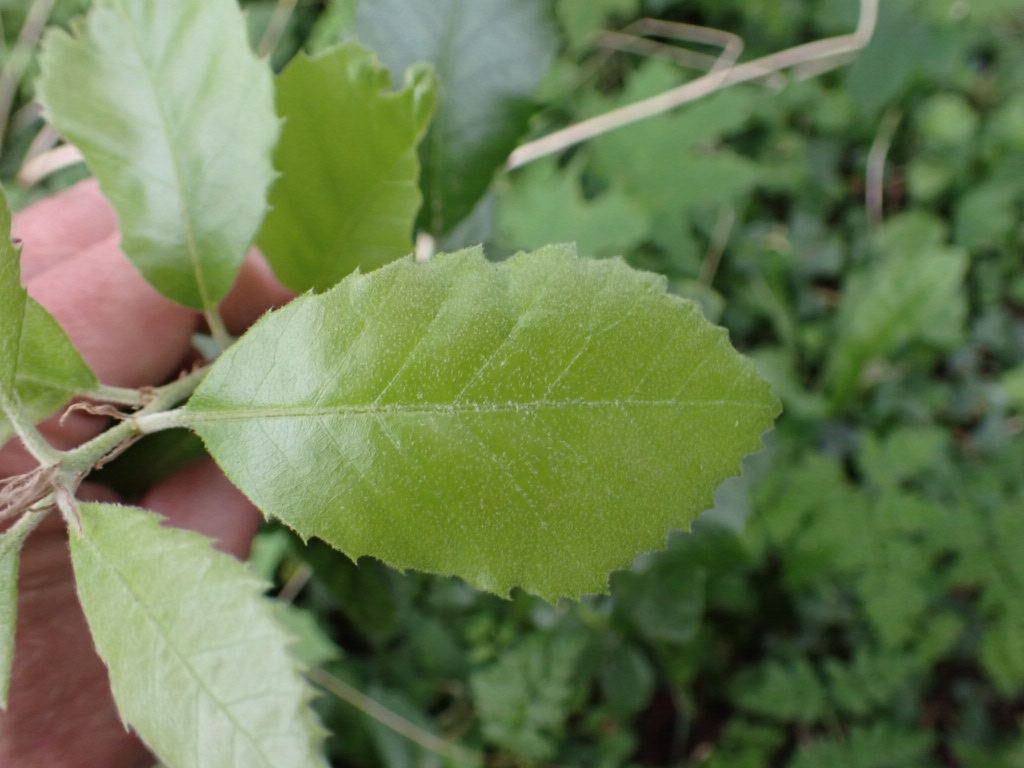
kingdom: Plantae
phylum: Tracheophyta
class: Magnoliopsida
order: Fagales
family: Fagaceae
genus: Quercus
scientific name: Quercus ilex
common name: Evergreen oak
